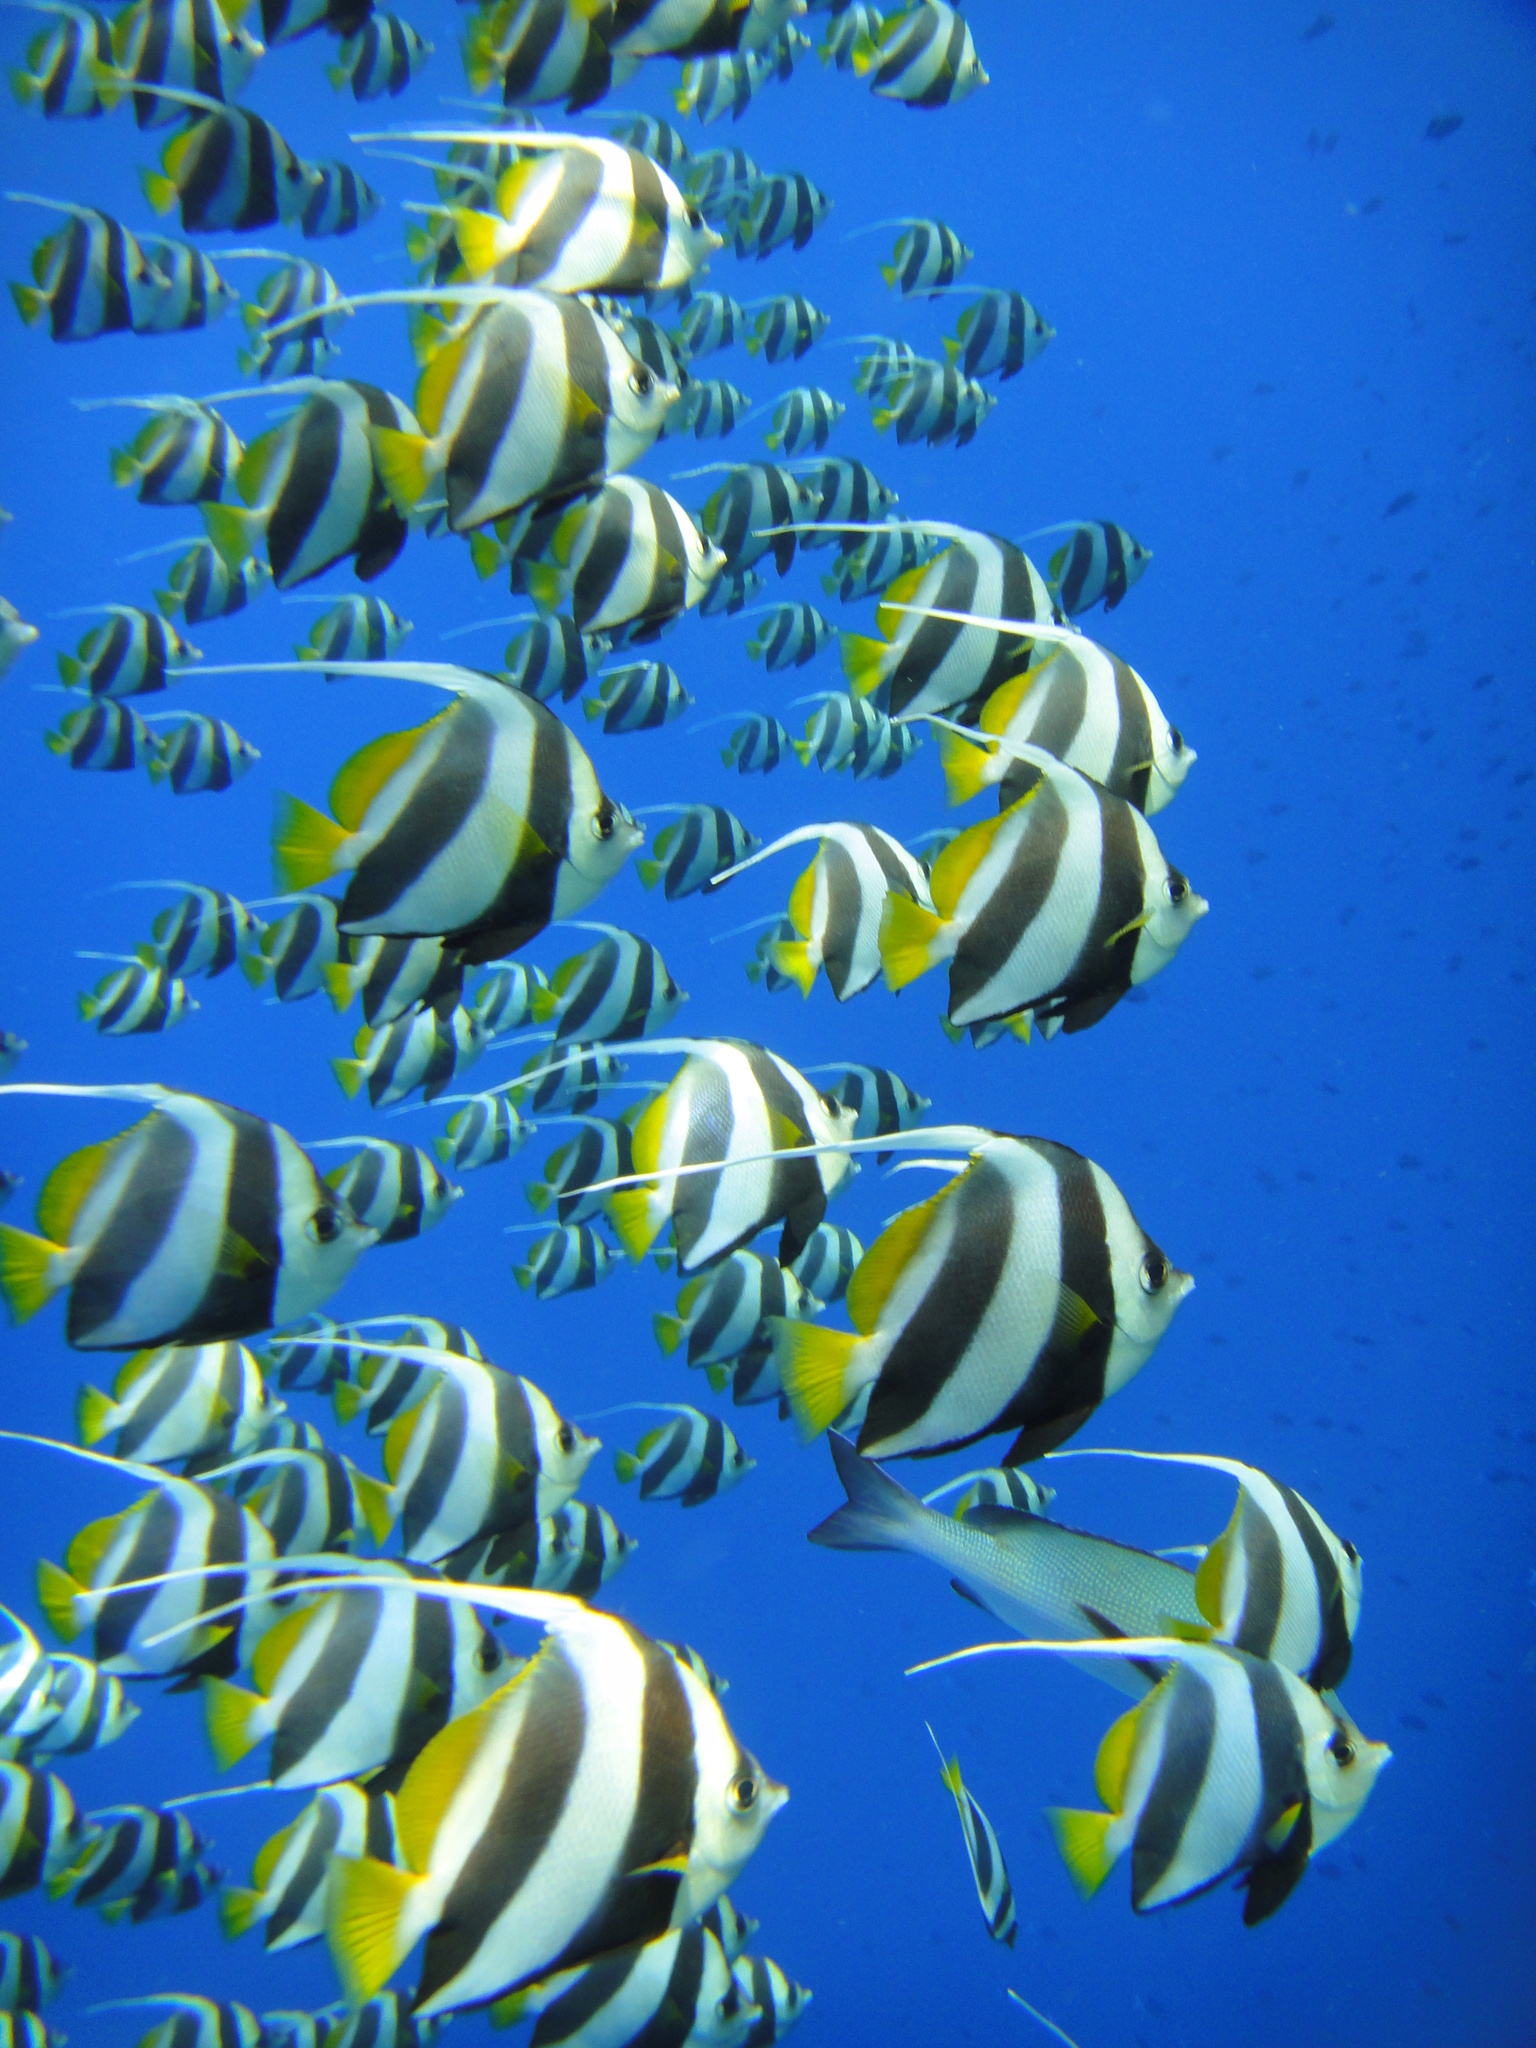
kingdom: Animalia
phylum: Chordata
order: Perciformes
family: Chaetodontidae
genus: Heniochus
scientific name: Heniochus diphreutes
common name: Pennantfish
